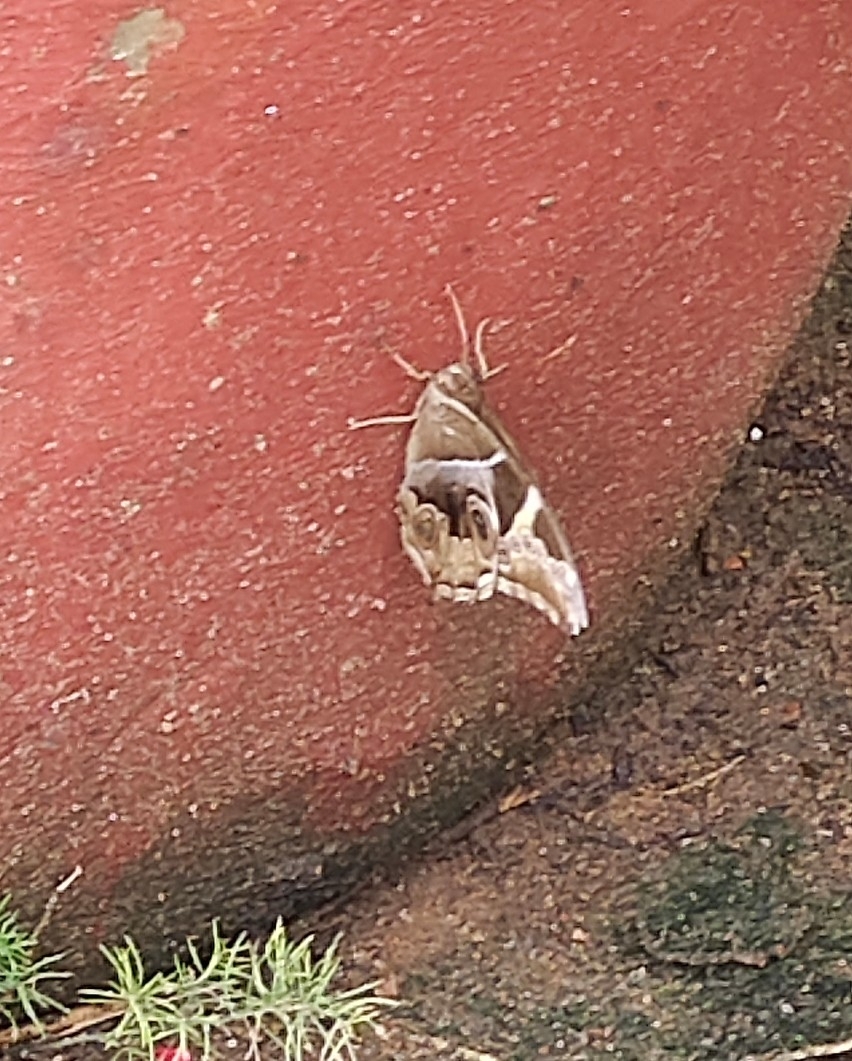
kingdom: Animalia
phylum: Arthropoda
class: Insecta
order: Lepidoptera
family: Nymphalidae
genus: Lethe
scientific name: Lethe europa
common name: Bamboo treebrown
